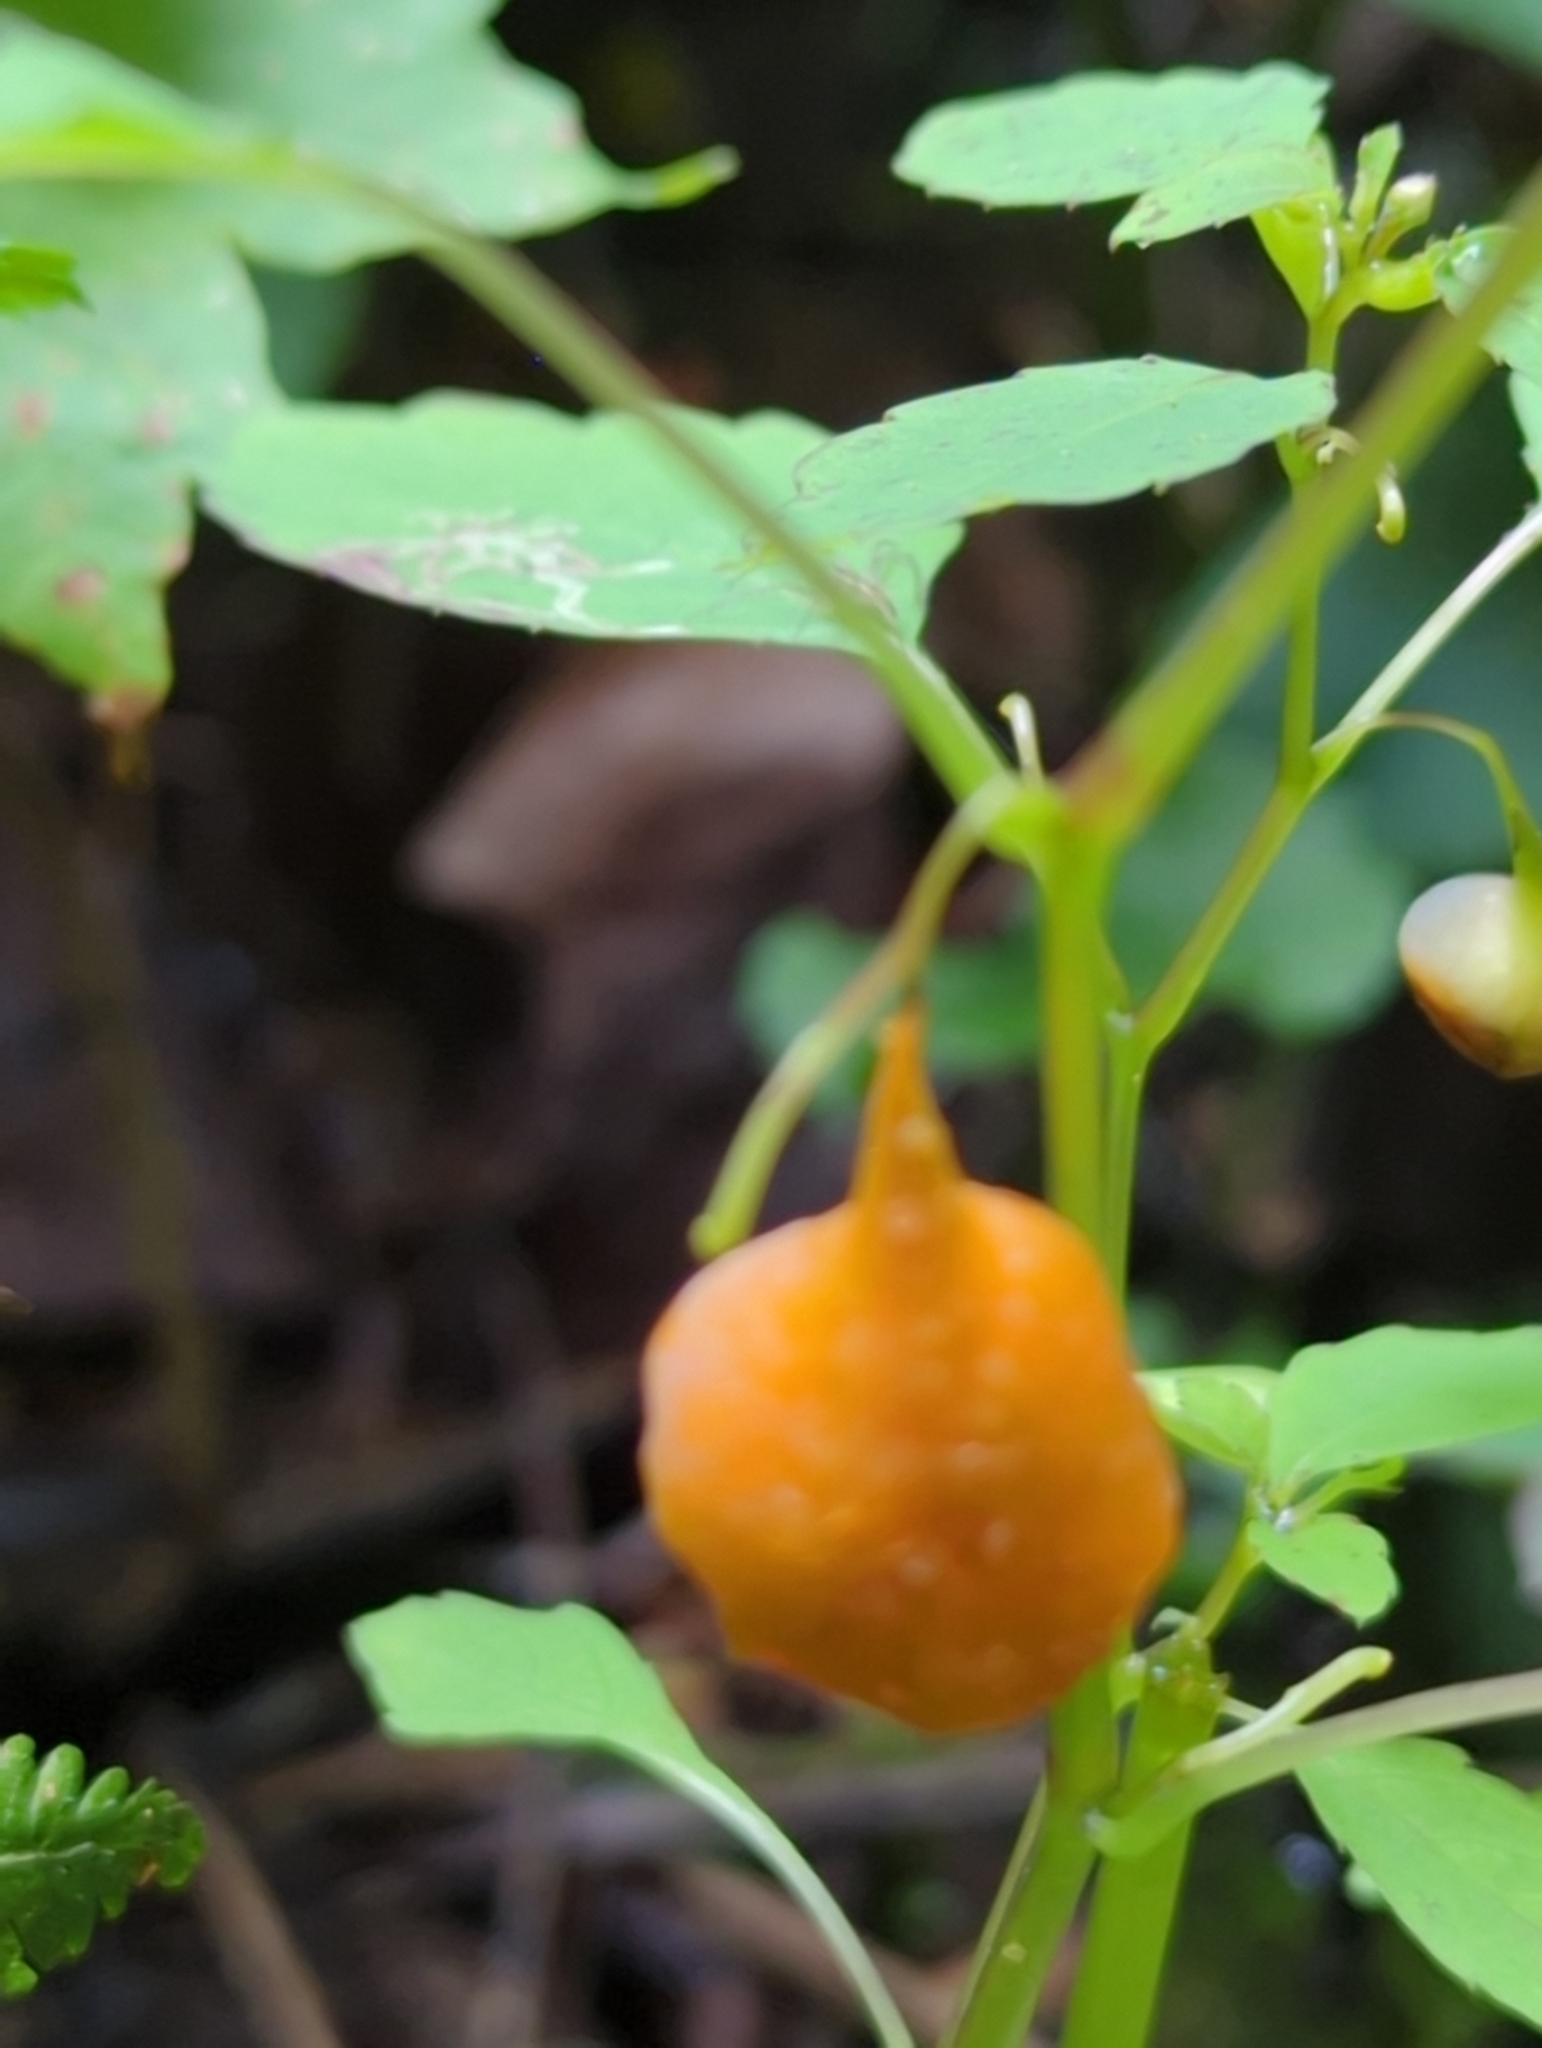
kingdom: Animalia
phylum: Arthropoda
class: Insecta
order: Diptera
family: Cecidomyiidae
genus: Schizomyia
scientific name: Schizomyia impatientis
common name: Jewelweed gall midge
